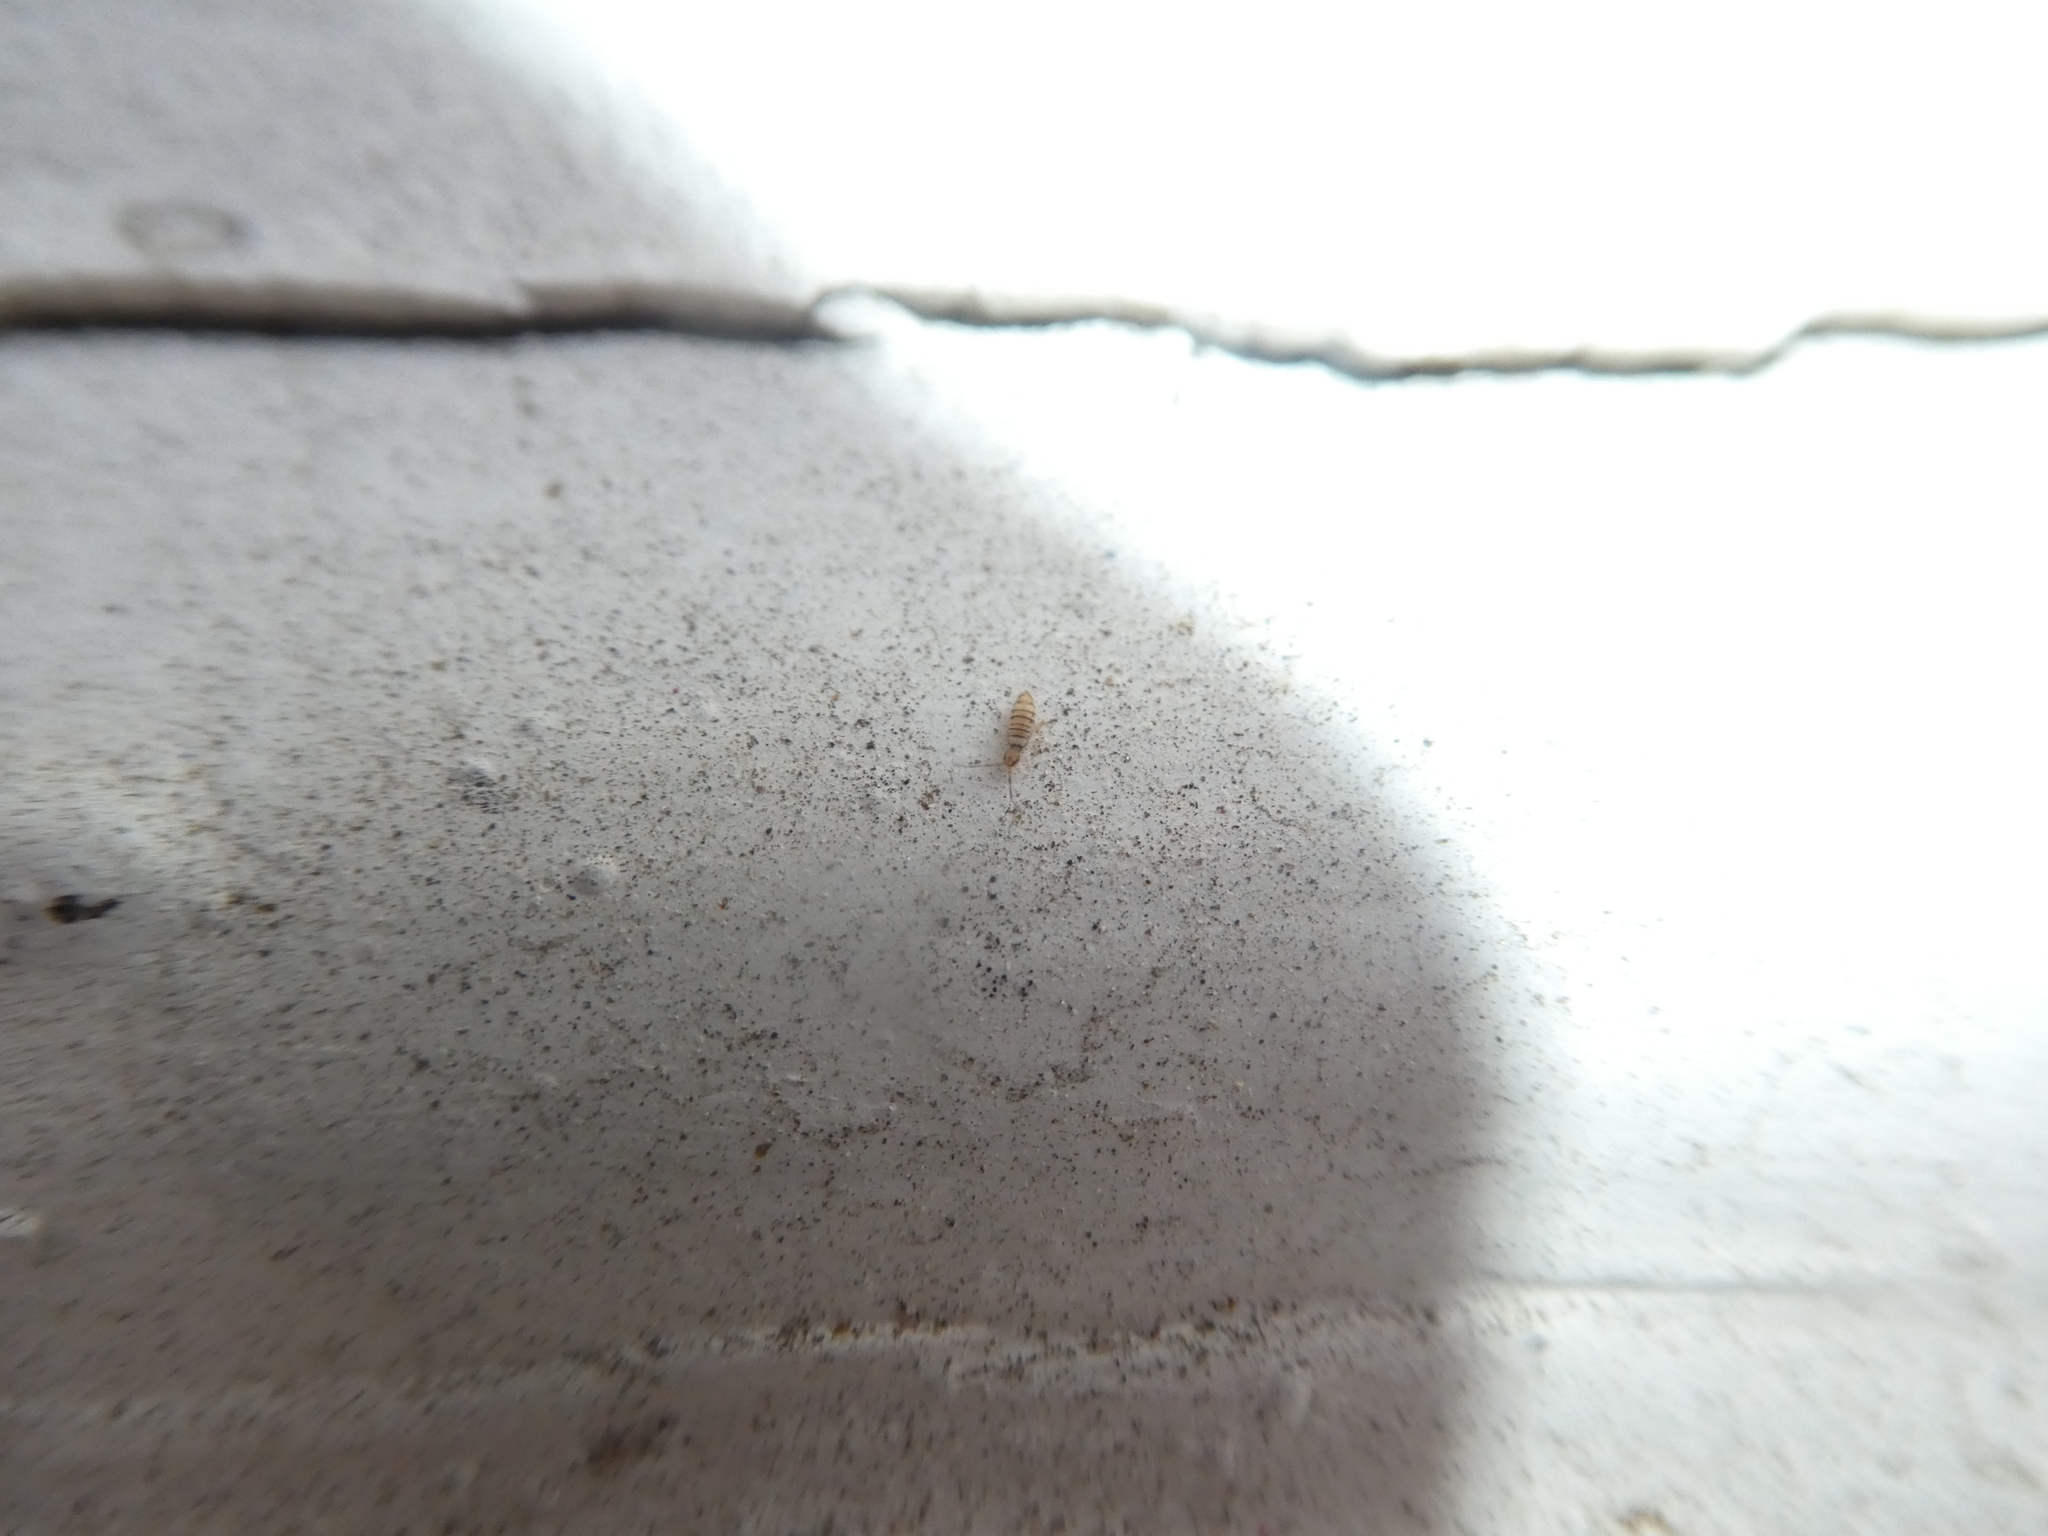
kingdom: Animalia
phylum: Arthropoda
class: Collembola
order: Entomobryomorpha
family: Entomobryidae
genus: Entomobrya
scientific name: Entomobrya atrocincta
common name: Springtail
